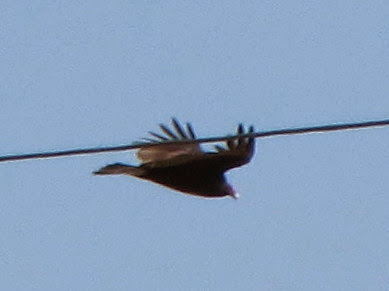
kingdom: Animalia
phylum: Chordata
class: Aves
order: Accipitriformes
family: Cathartidae
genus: Cathartes
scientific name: Cathartes aura
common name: Turkey vulture
